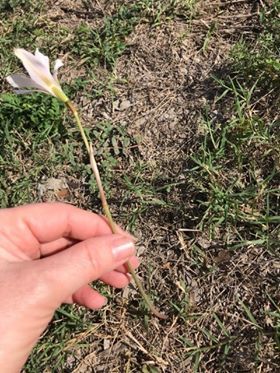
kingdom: Plantae
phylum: Tracheophyta
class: Liliopsida
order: Asparagales
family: Amaryllidaceae
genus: Zephyranthes
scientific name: Zephyranthes tubispatha
